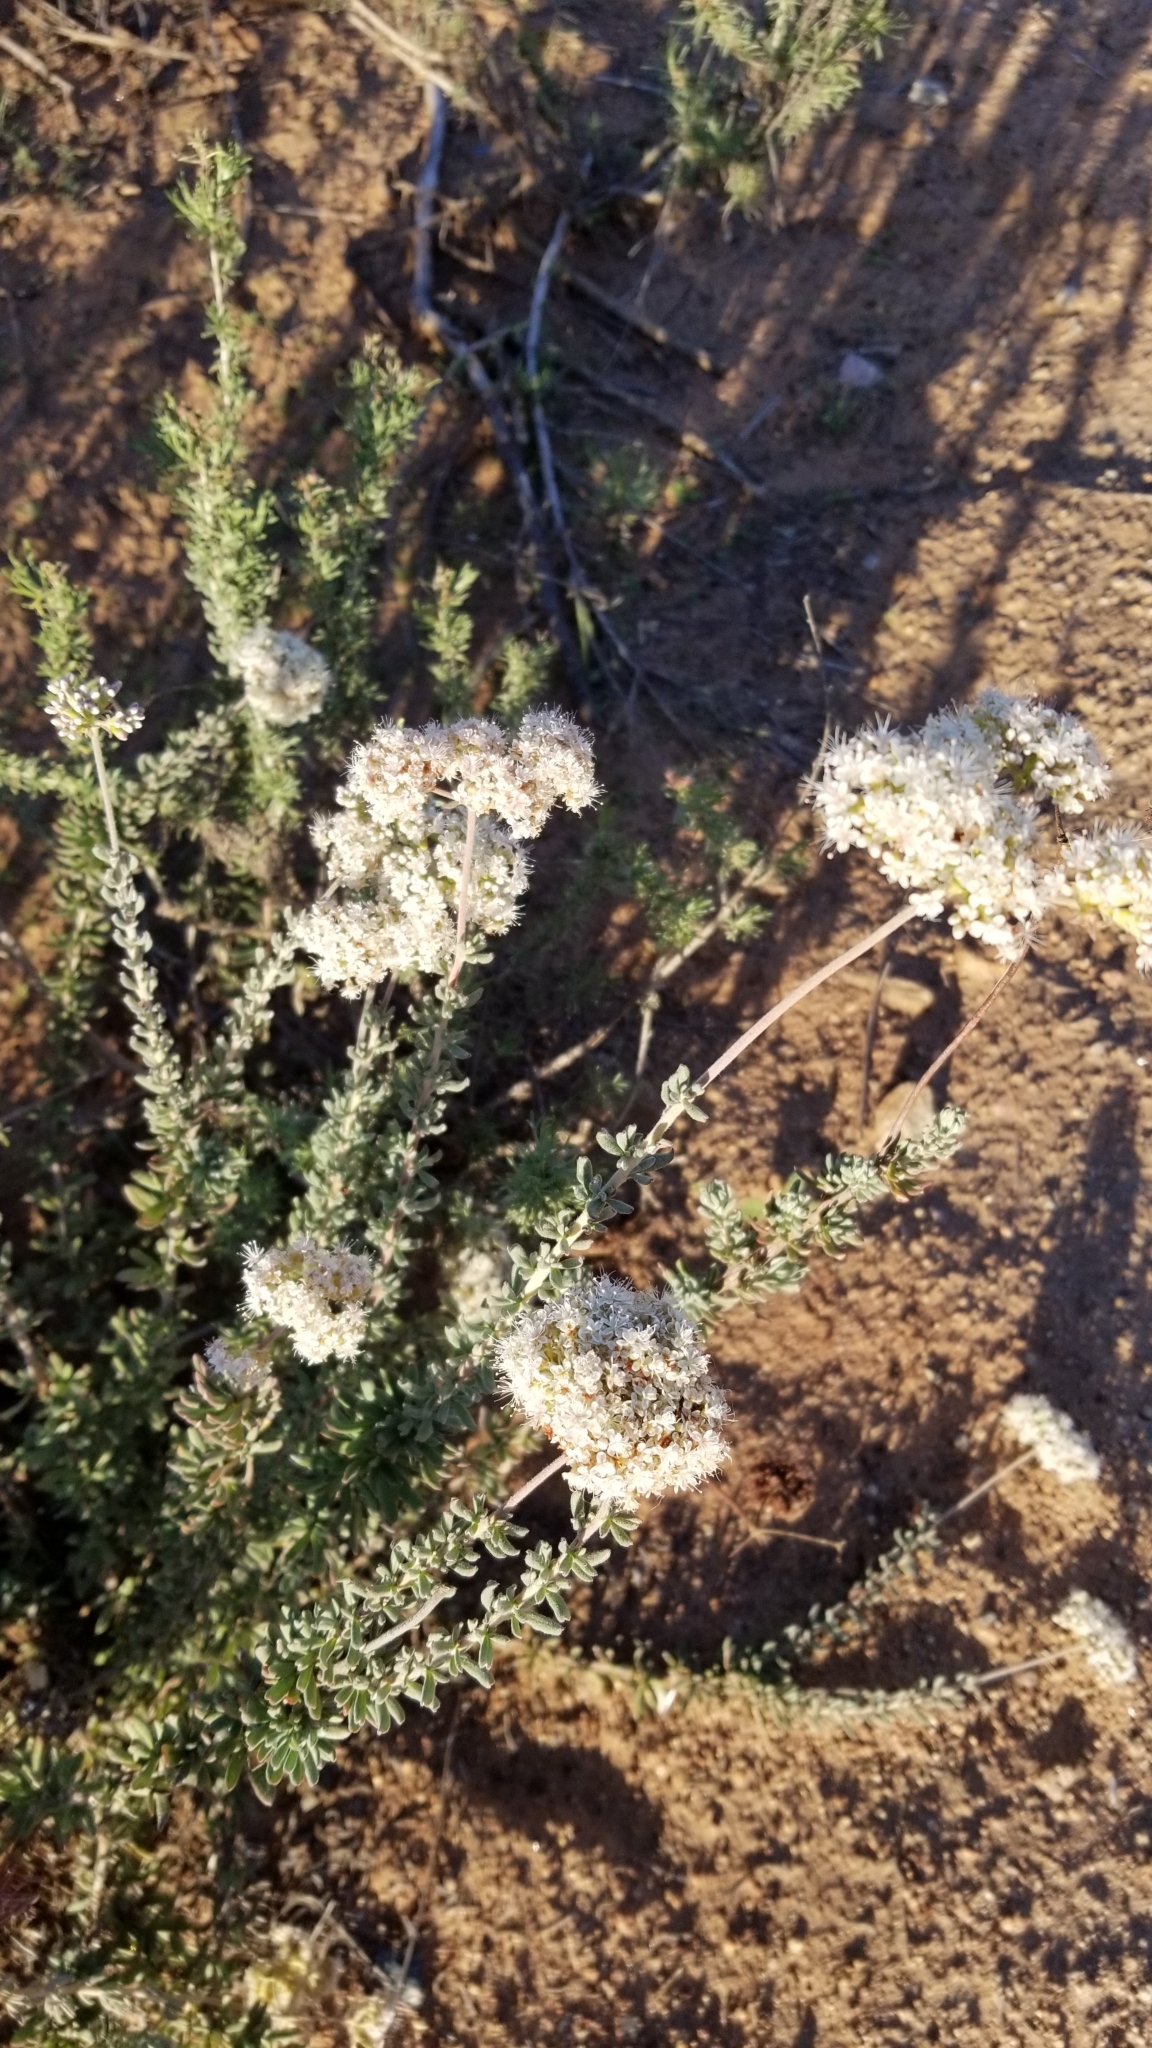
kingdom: Plantae
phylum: Tracheophyta
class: Magnoliopsida
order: Caryophyllales
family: Polygonaceae
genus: Eriogonum
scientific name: Eriogonum fasciculatum
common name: California wild buckwheat
